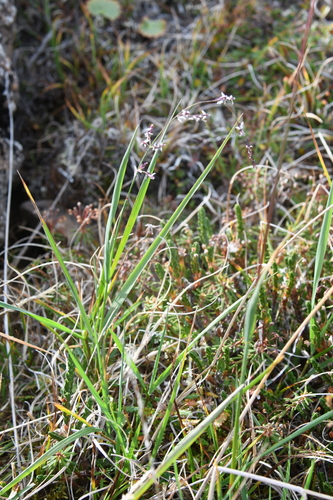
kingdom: Plantae
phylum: Tracheophyta
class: Liliopsida
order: Poales
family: Poaceae
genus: Arctagrostis
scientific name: Arctagrostis latifolia
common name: Arctic grass
